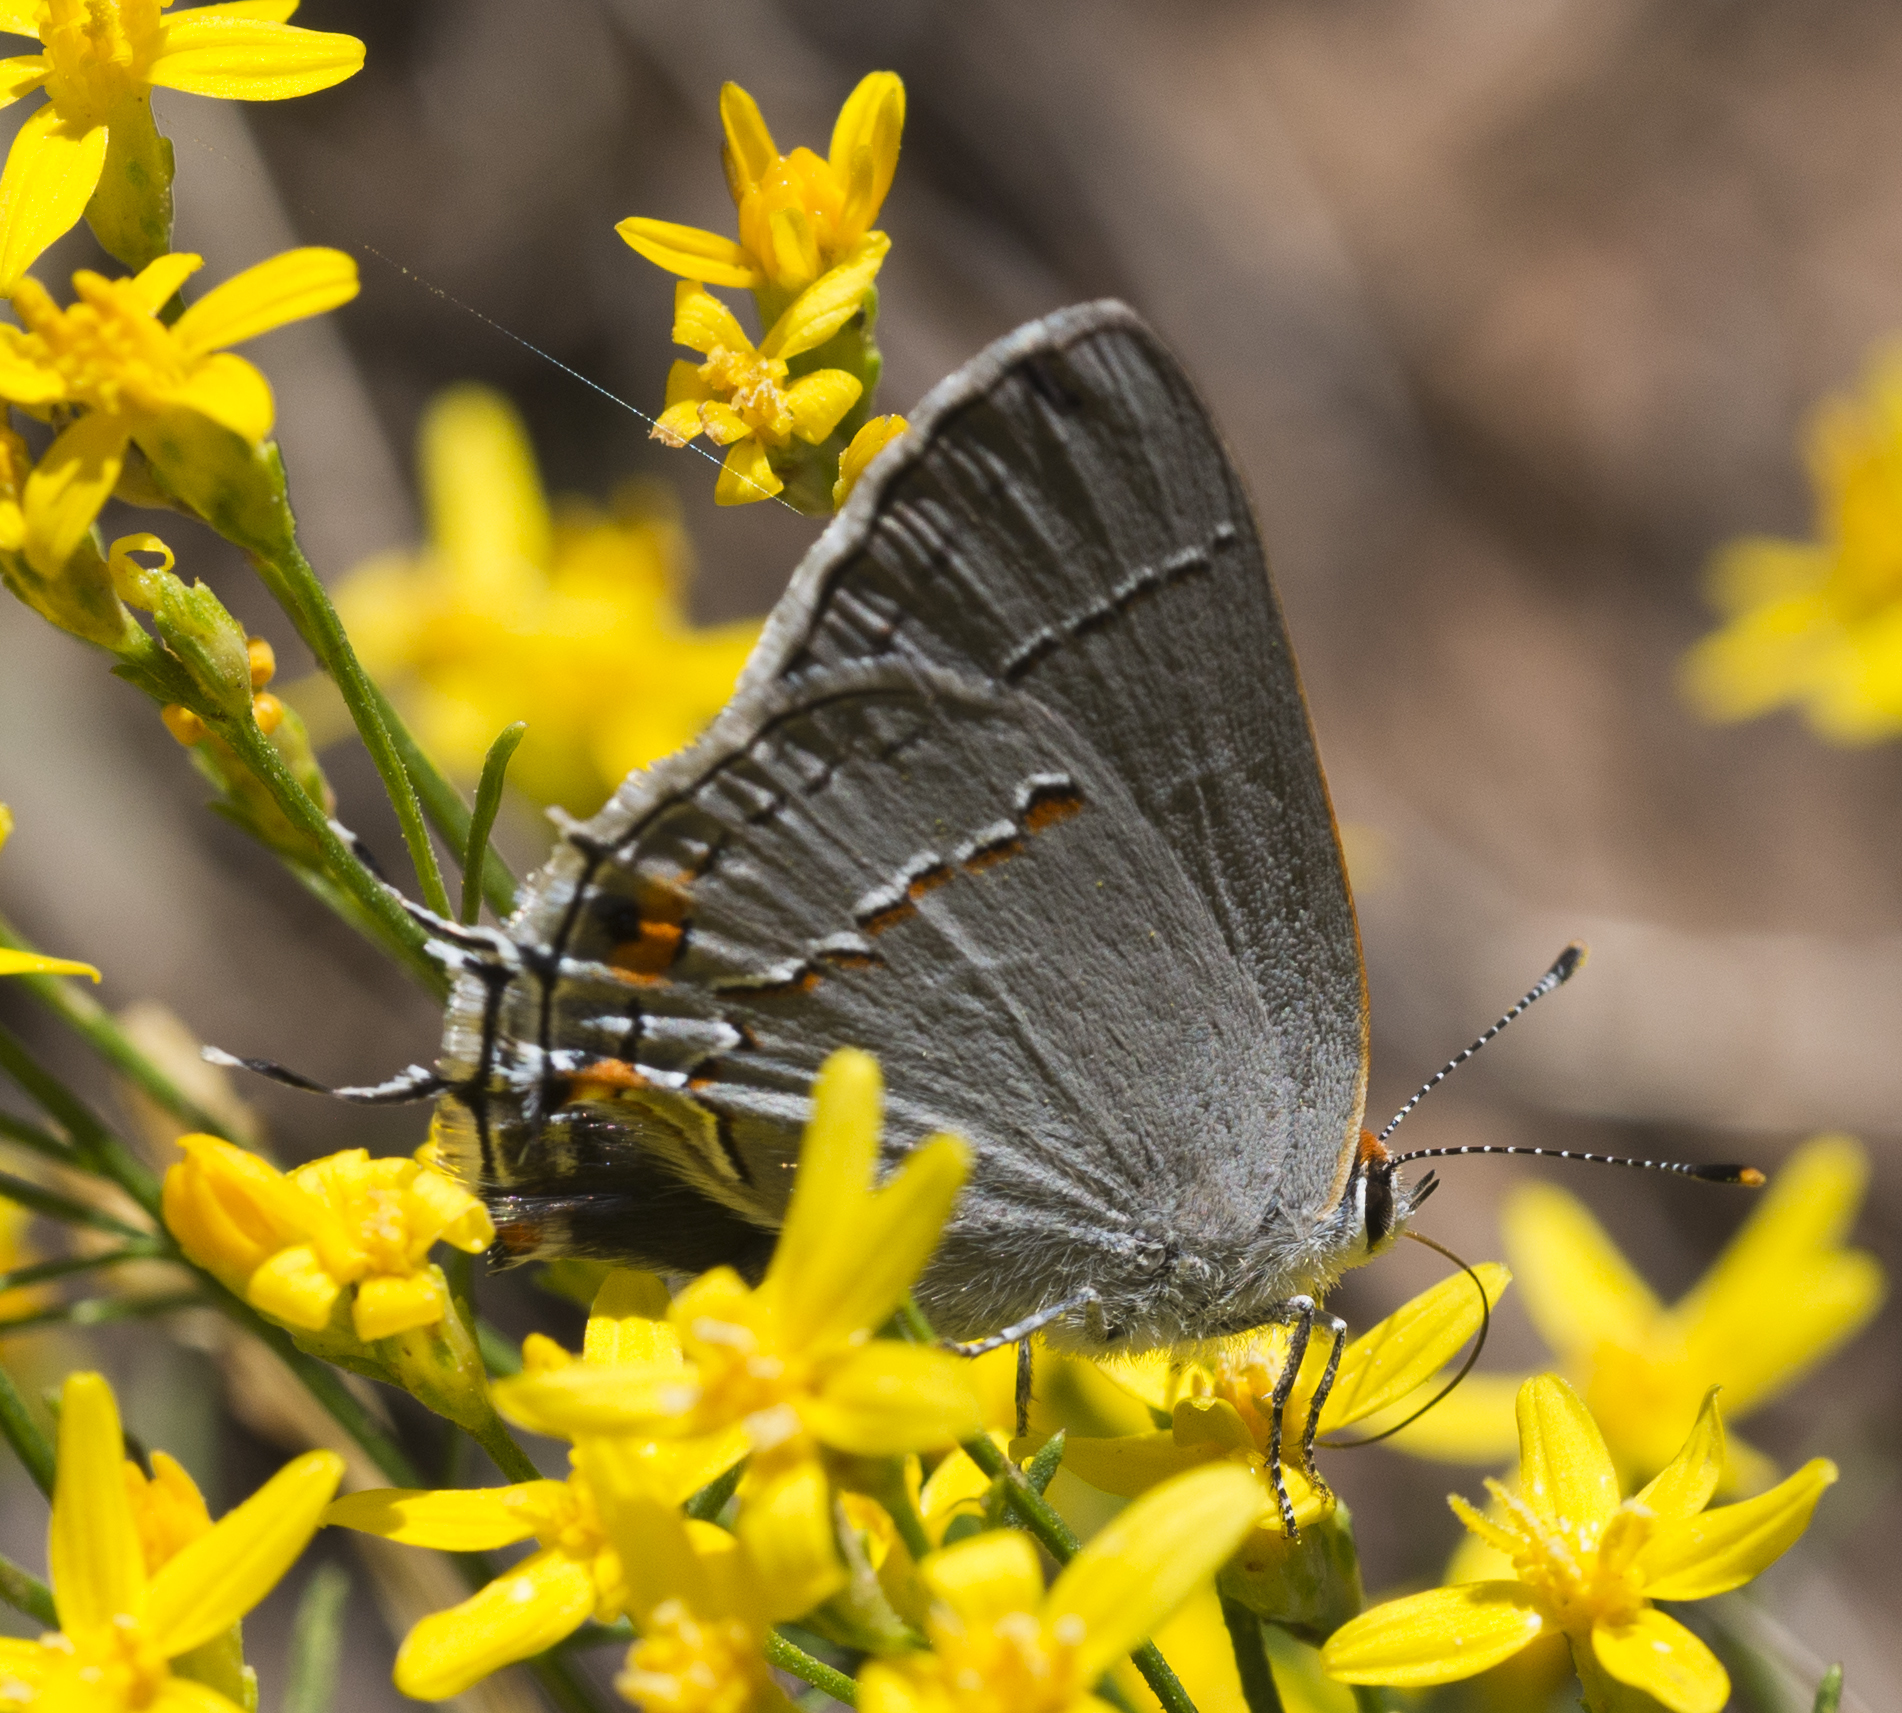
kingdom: Animalia
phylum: Arthropoda
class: Insecta
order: Lepidoptera
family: Lycaenidae
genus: Strymon
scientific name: Strymon melinus
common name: Gray hairstreak
